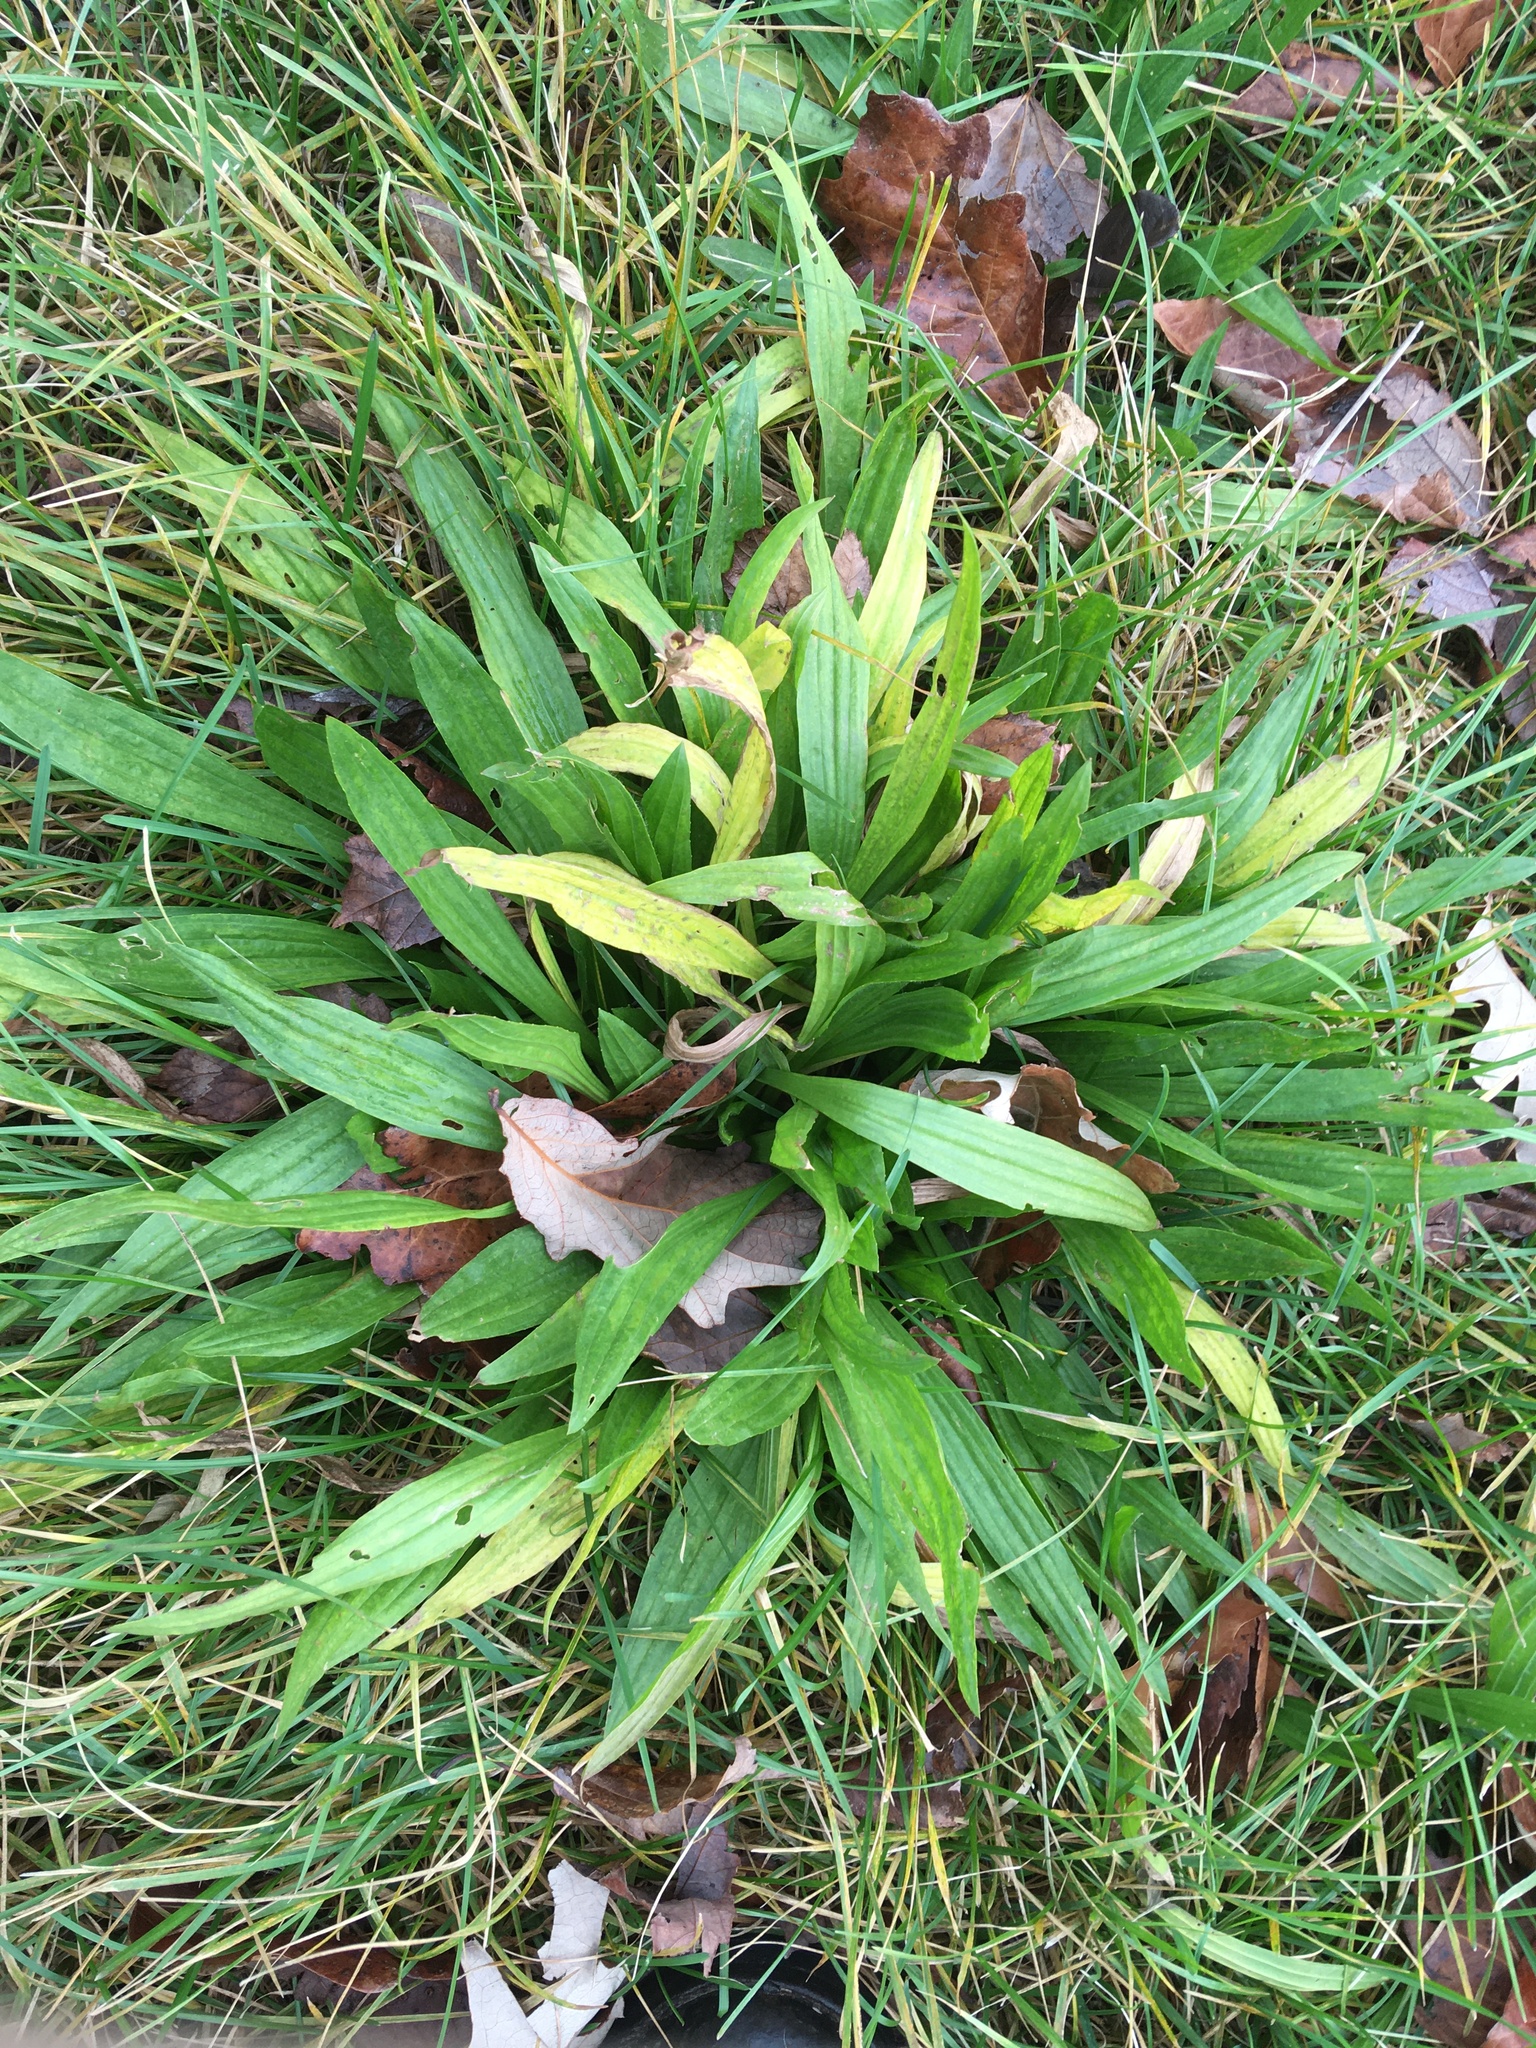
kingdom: Plantae
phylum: Tracheophyta
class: Magnoliopsida
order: Lamiales
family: Plantaginaceae
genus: Plantago
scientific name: Plantago lanceolata
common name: Ribwort plantain
